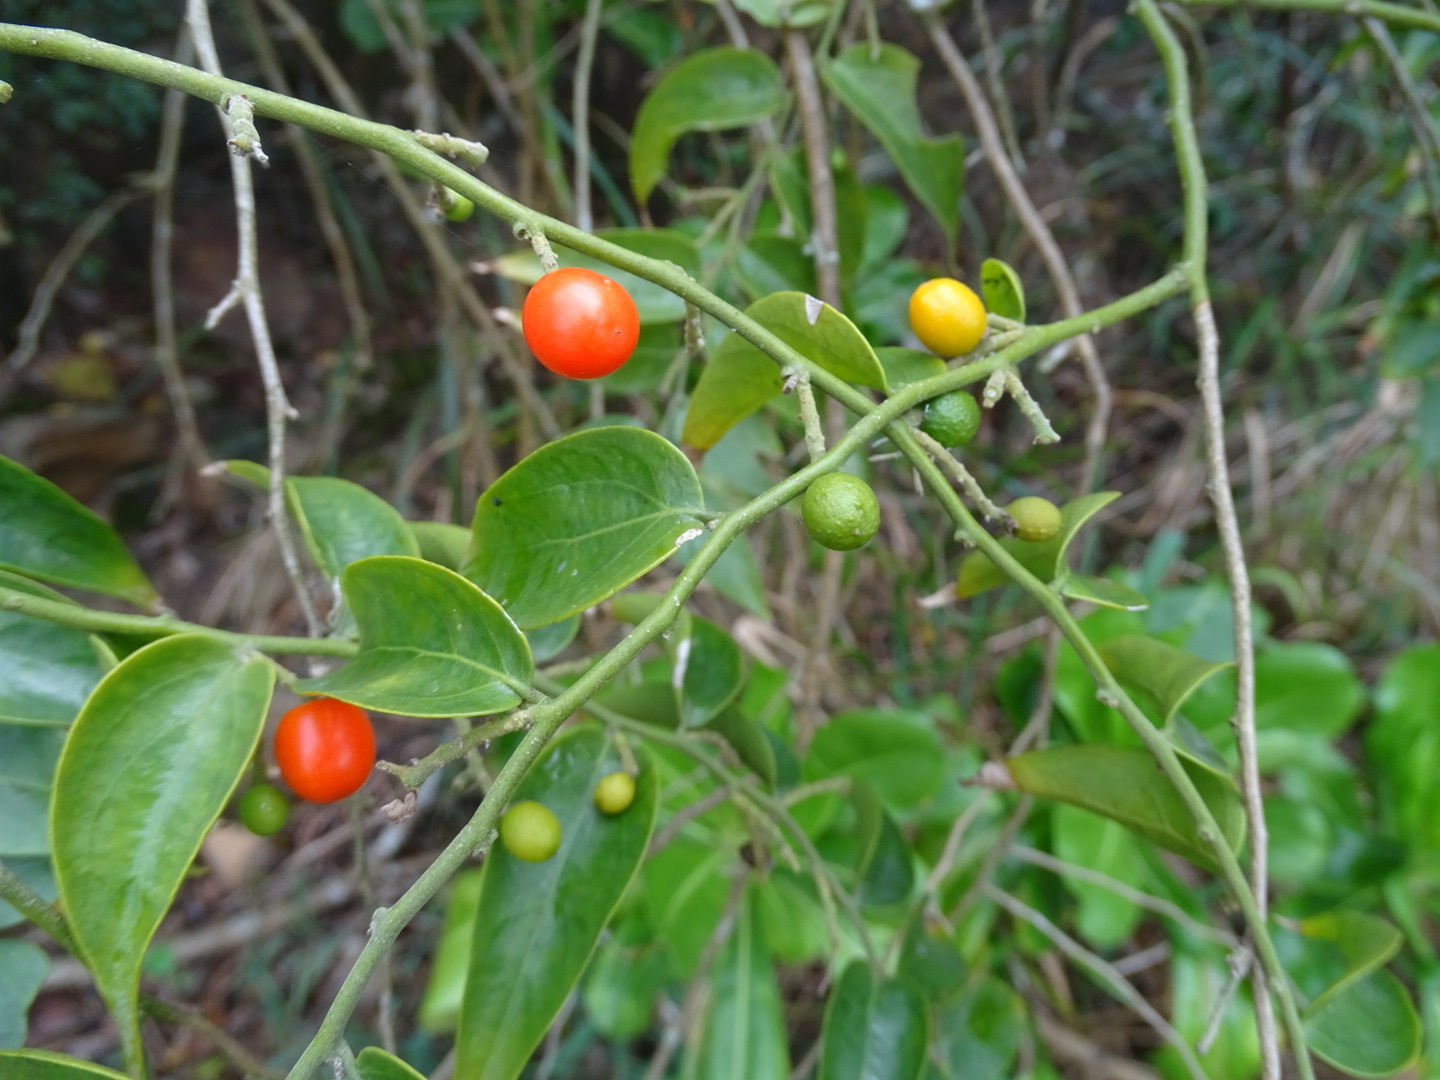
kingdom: Plantae
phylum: Tracheophyta
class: Magnoliopsida
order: Santalales
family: Opiliaceae
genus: Cansjera
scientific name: Cansjera rheedei
